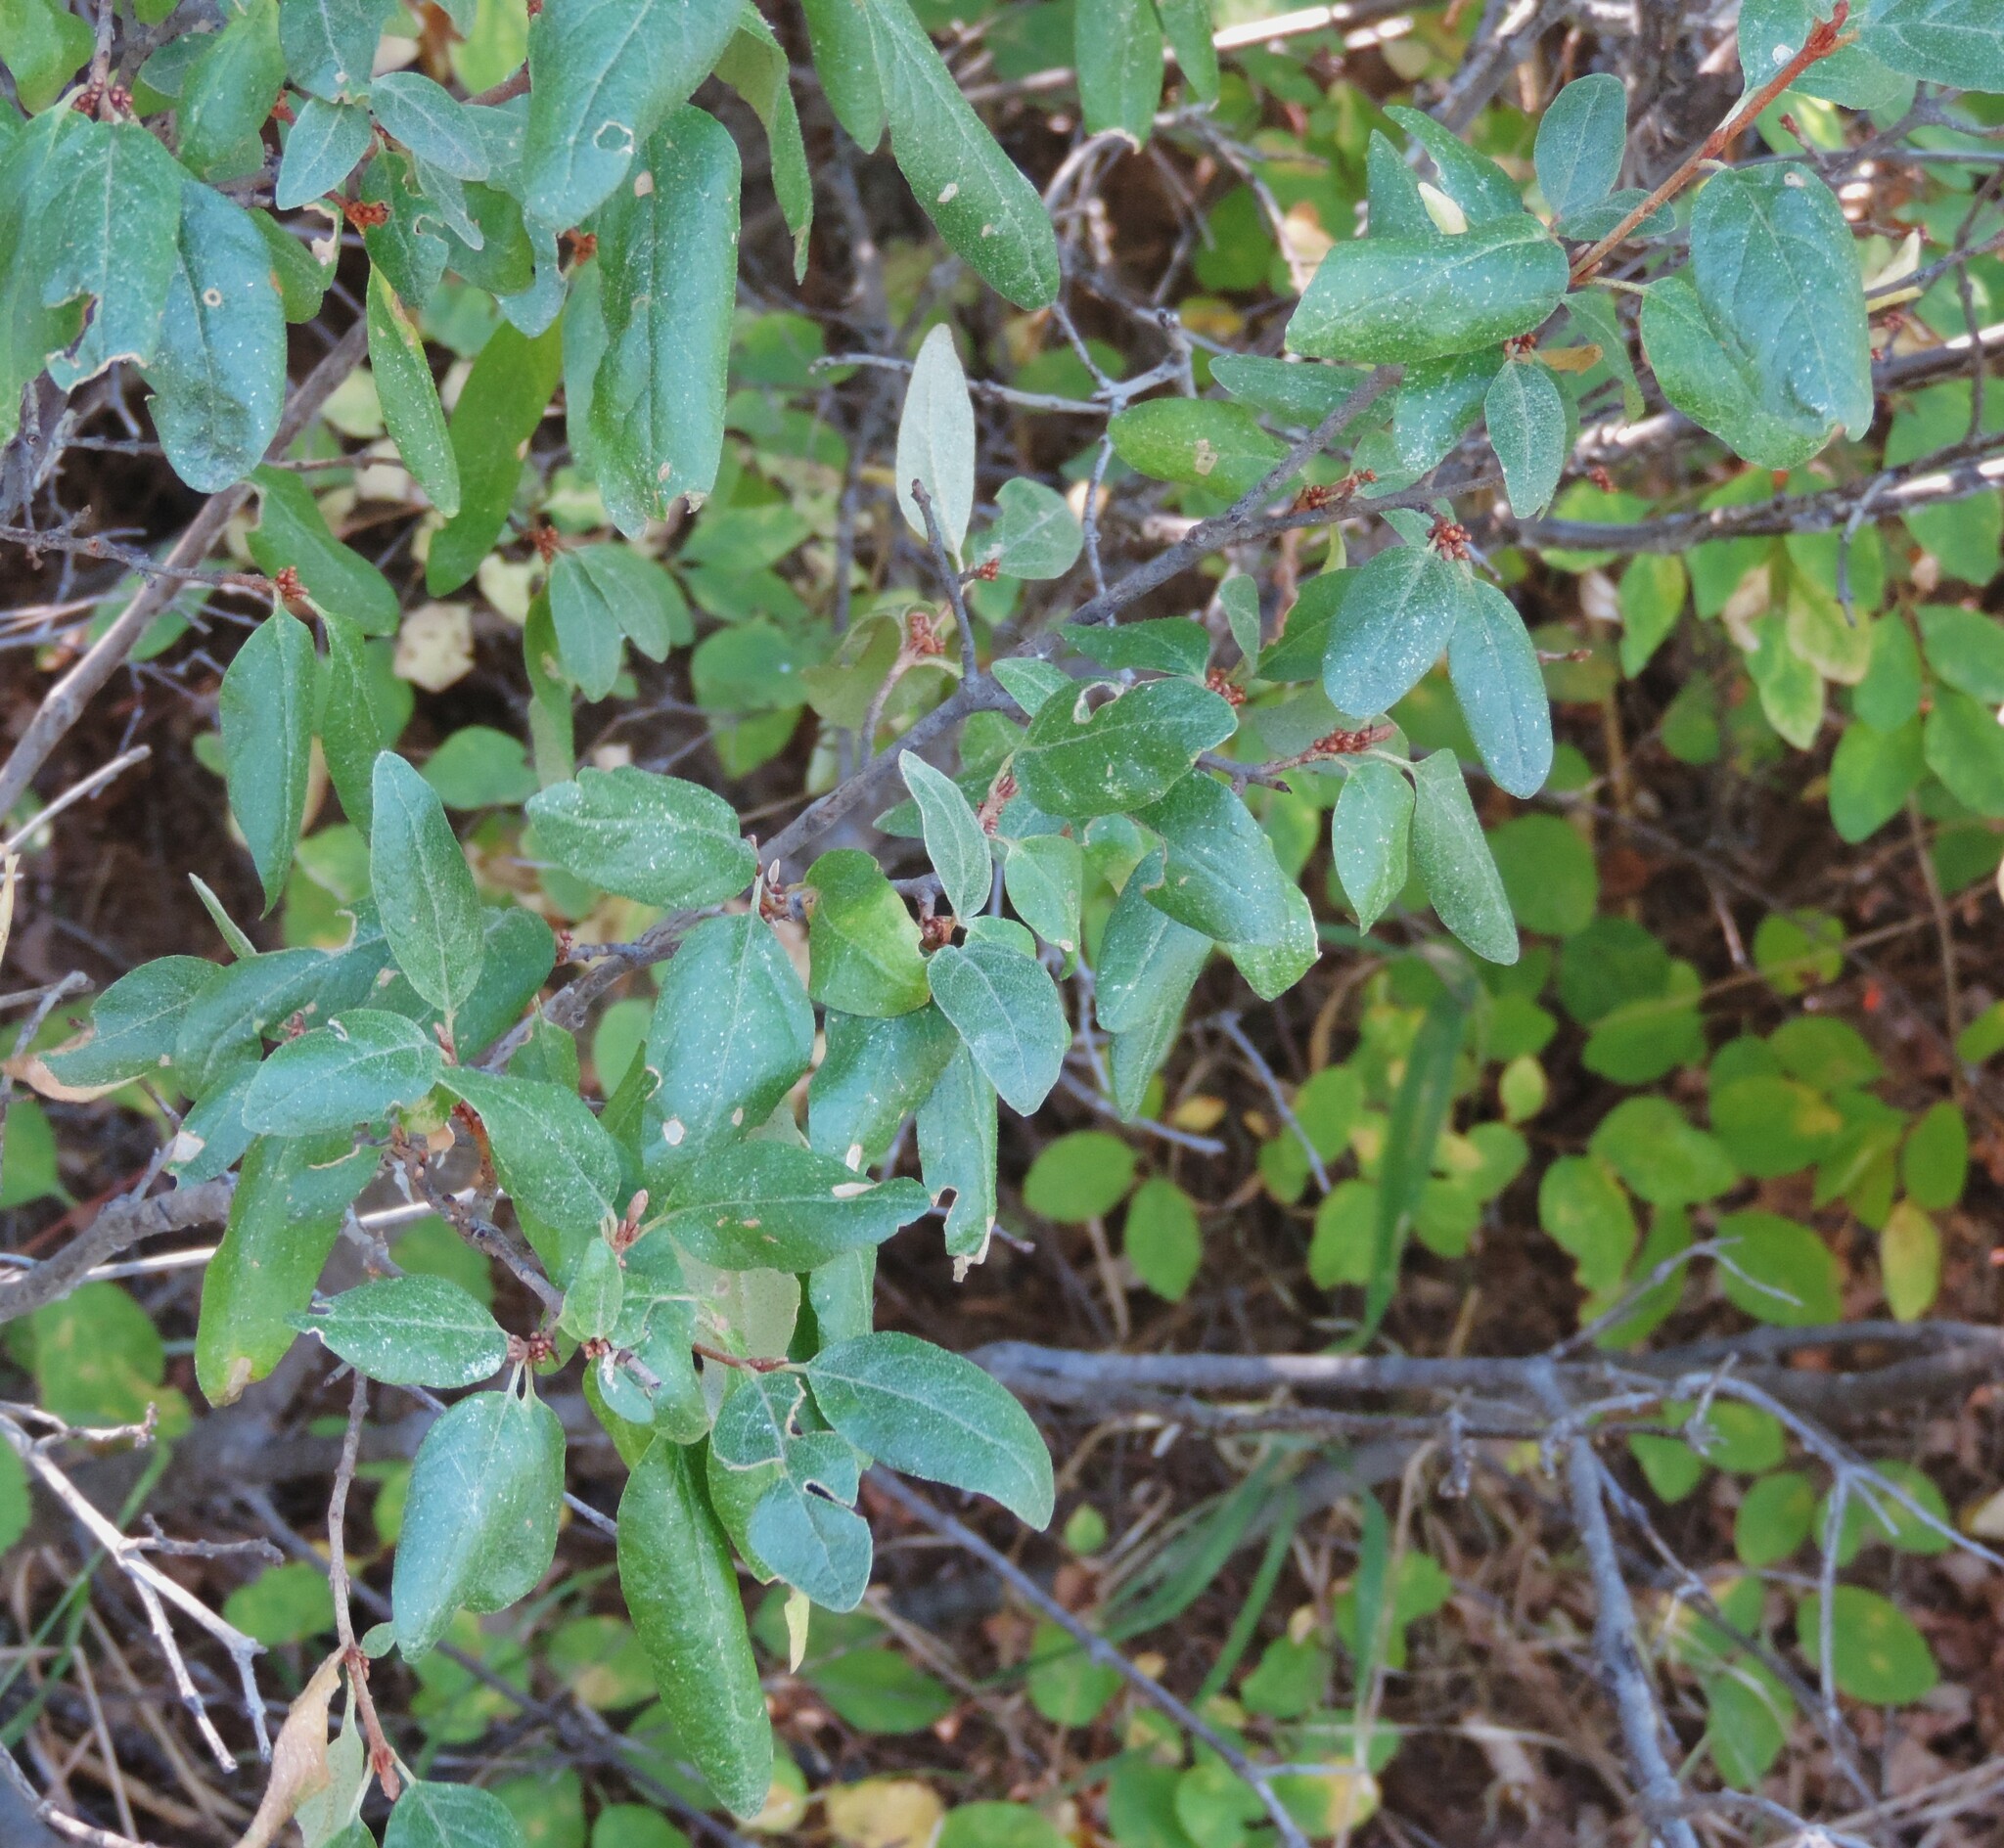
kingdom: Plantae
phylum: Tracheophyta
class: Magnoliopsida
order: Rosales
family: Elaeagnaceae
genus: Shepherdia
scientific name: Shepherdia canadensis
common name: Soapberry
